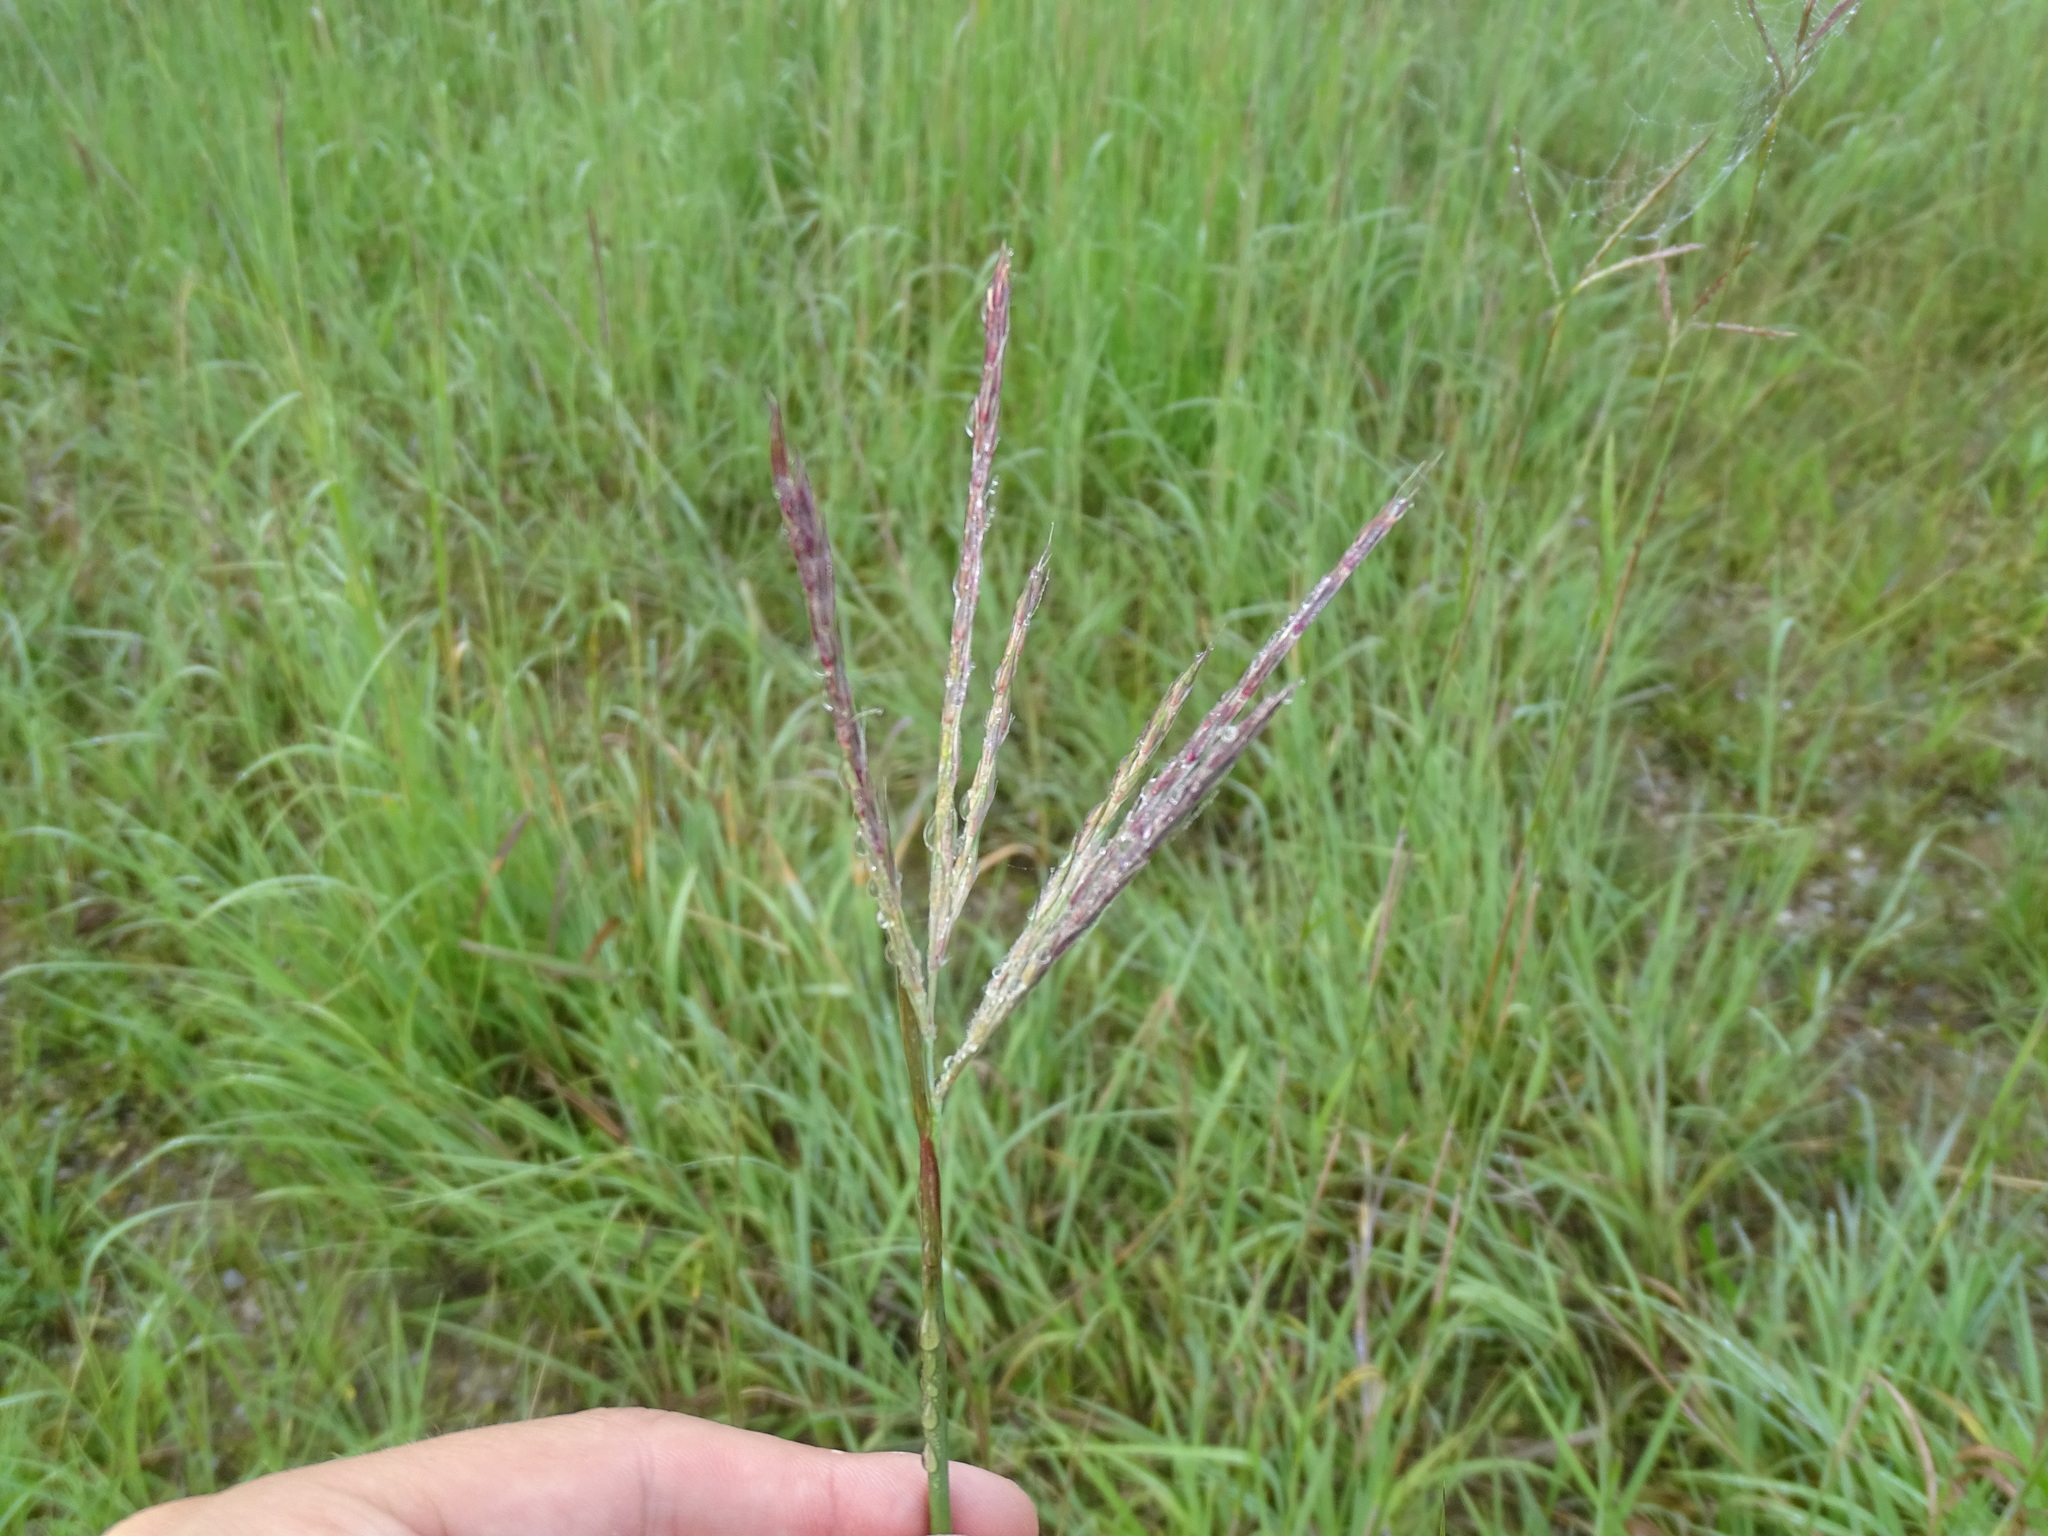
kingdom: Plantae
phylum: Tracheophyta
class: Liliopsida
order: Poales
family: Poaceae
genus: Andropogon
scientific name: Andropogon gerardi
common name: Big bluestem
